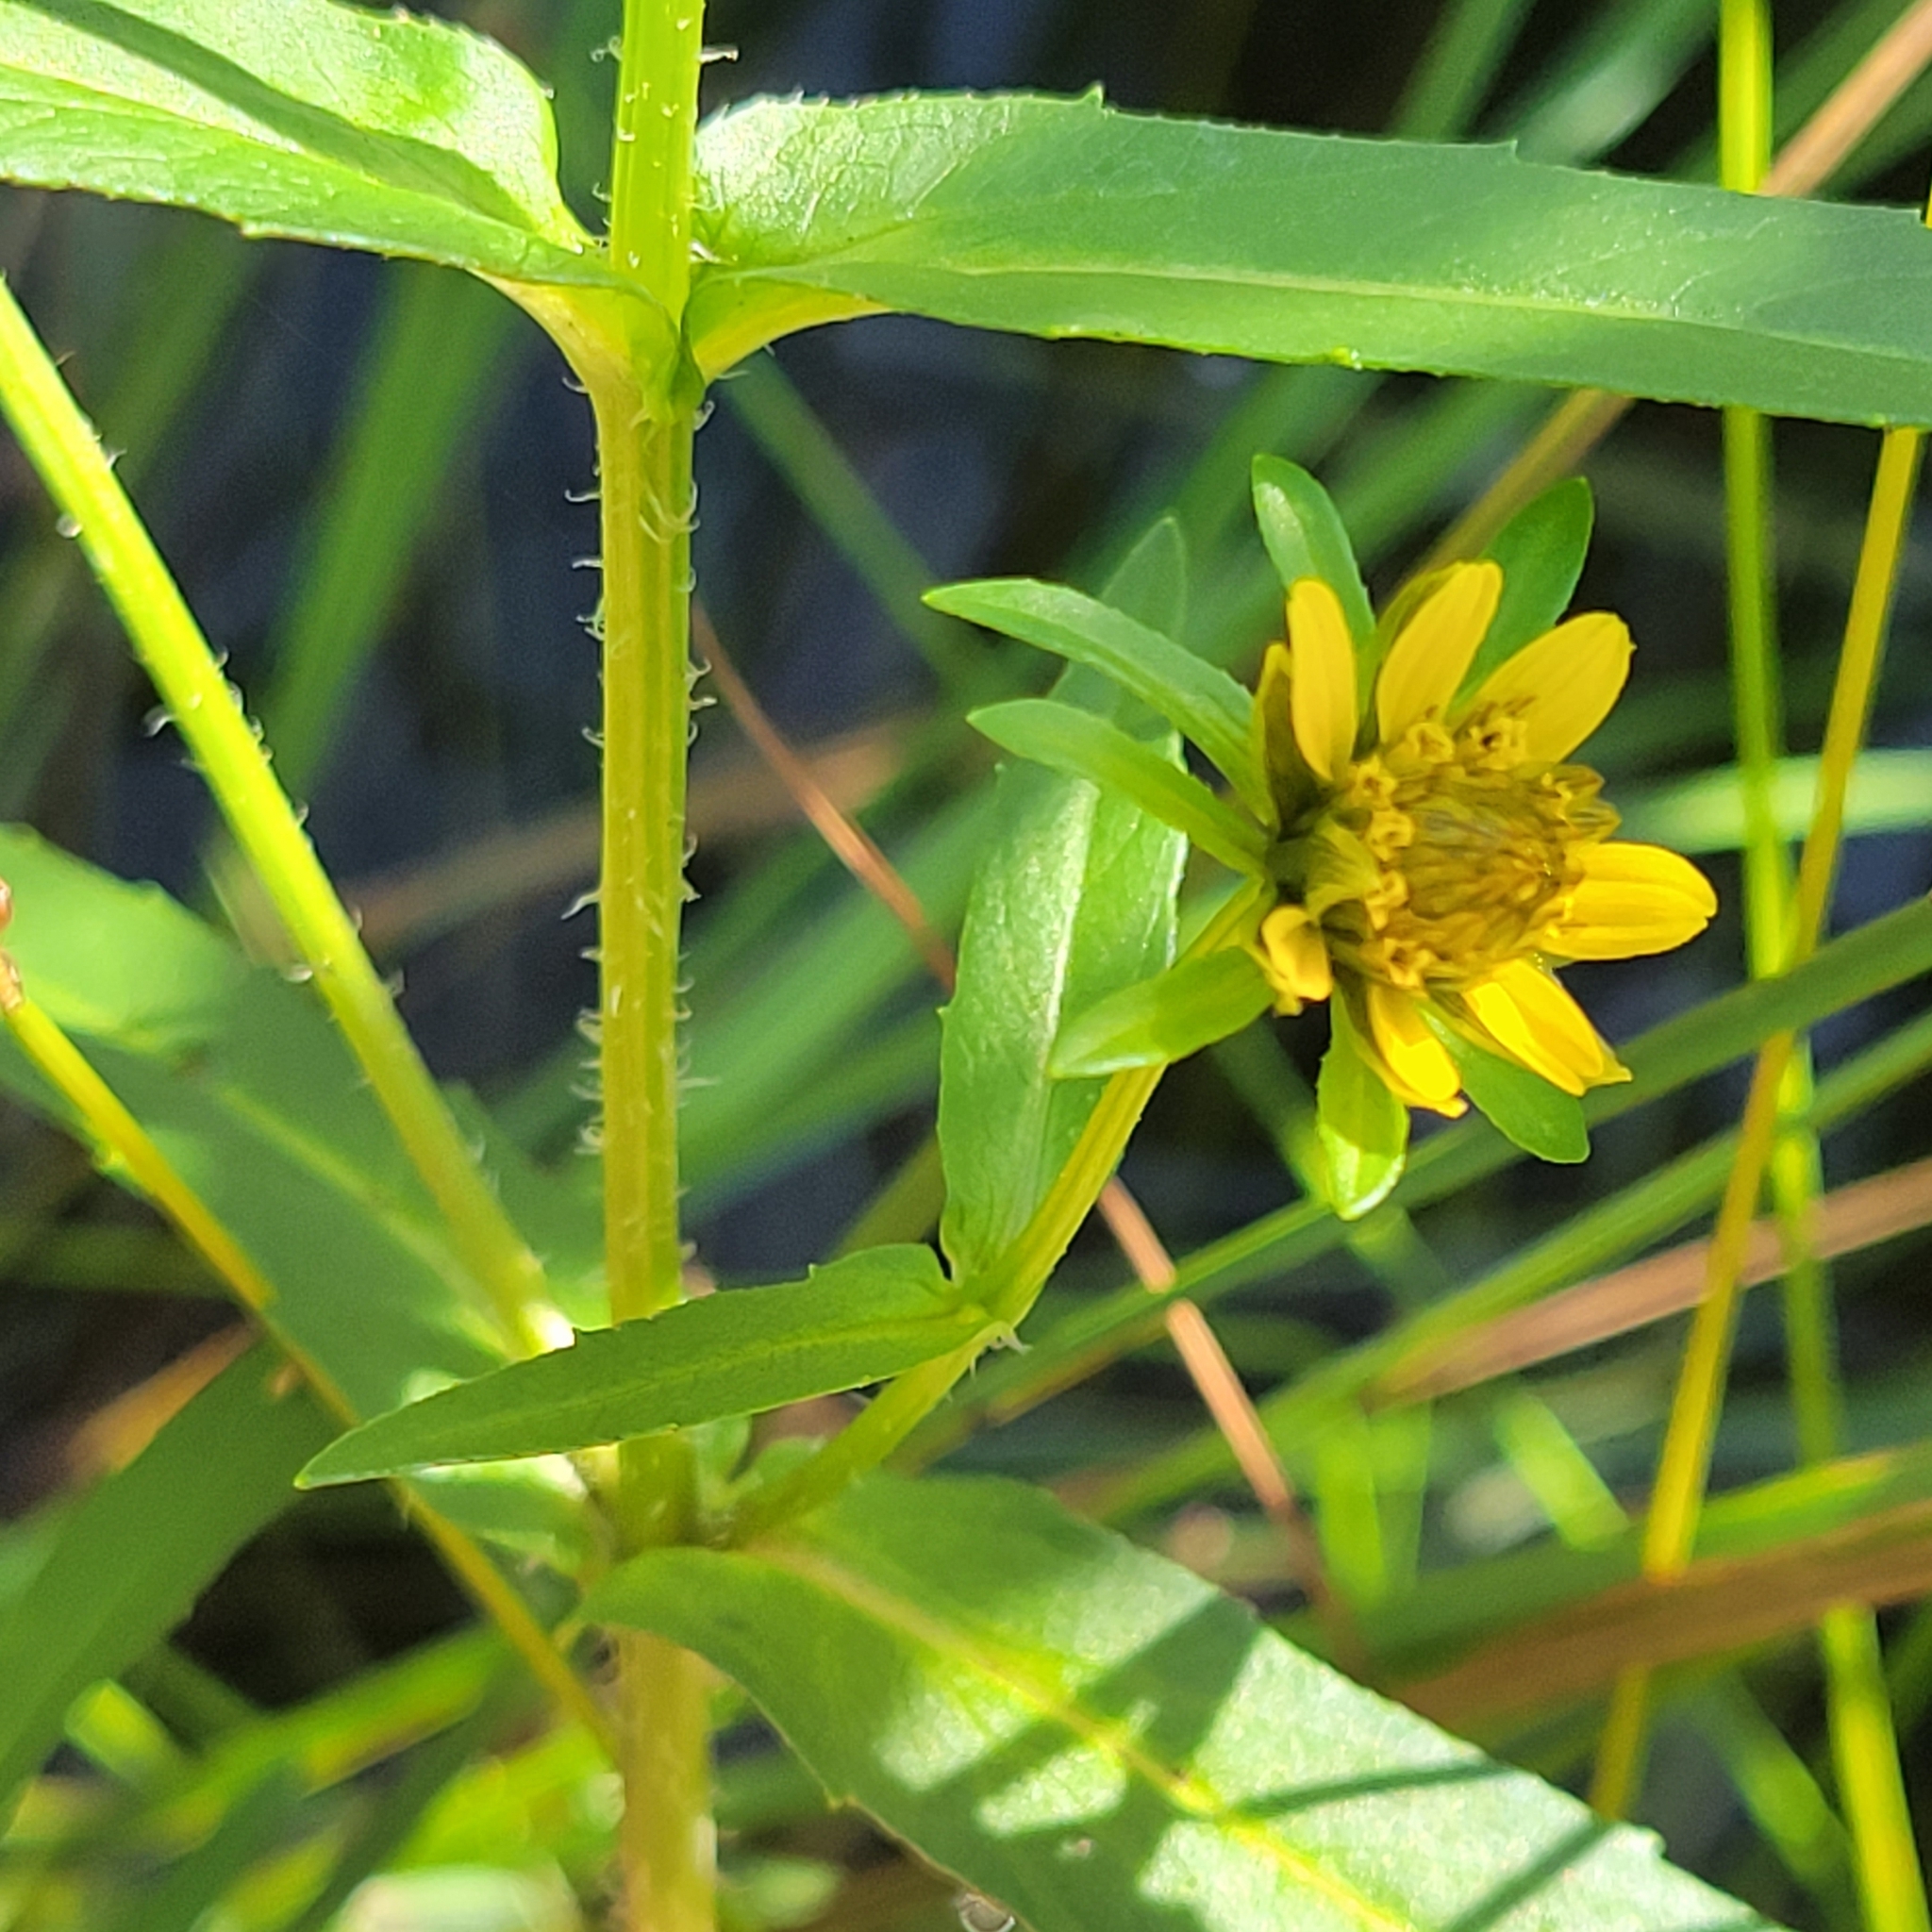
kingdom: Plantae
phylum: Tracheophyta
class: Magnoliopsida
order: Asterales
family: Asteraceae
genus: Bidens
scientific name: Bidens cernua
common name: Nodding bur-marigold
